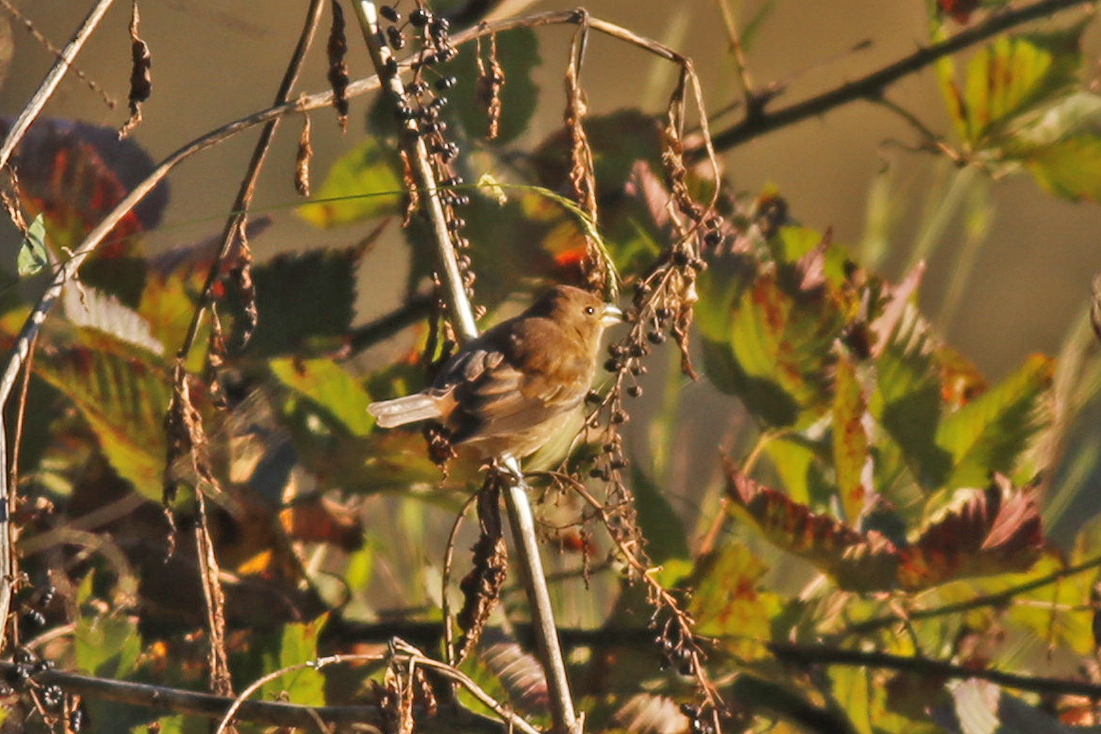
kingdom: Animalia
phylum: Chordata
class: Aves
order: Passeriformes
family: Cardinalidae
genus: Passerina
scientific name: Passerina cyanea
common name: Indigo bunting
